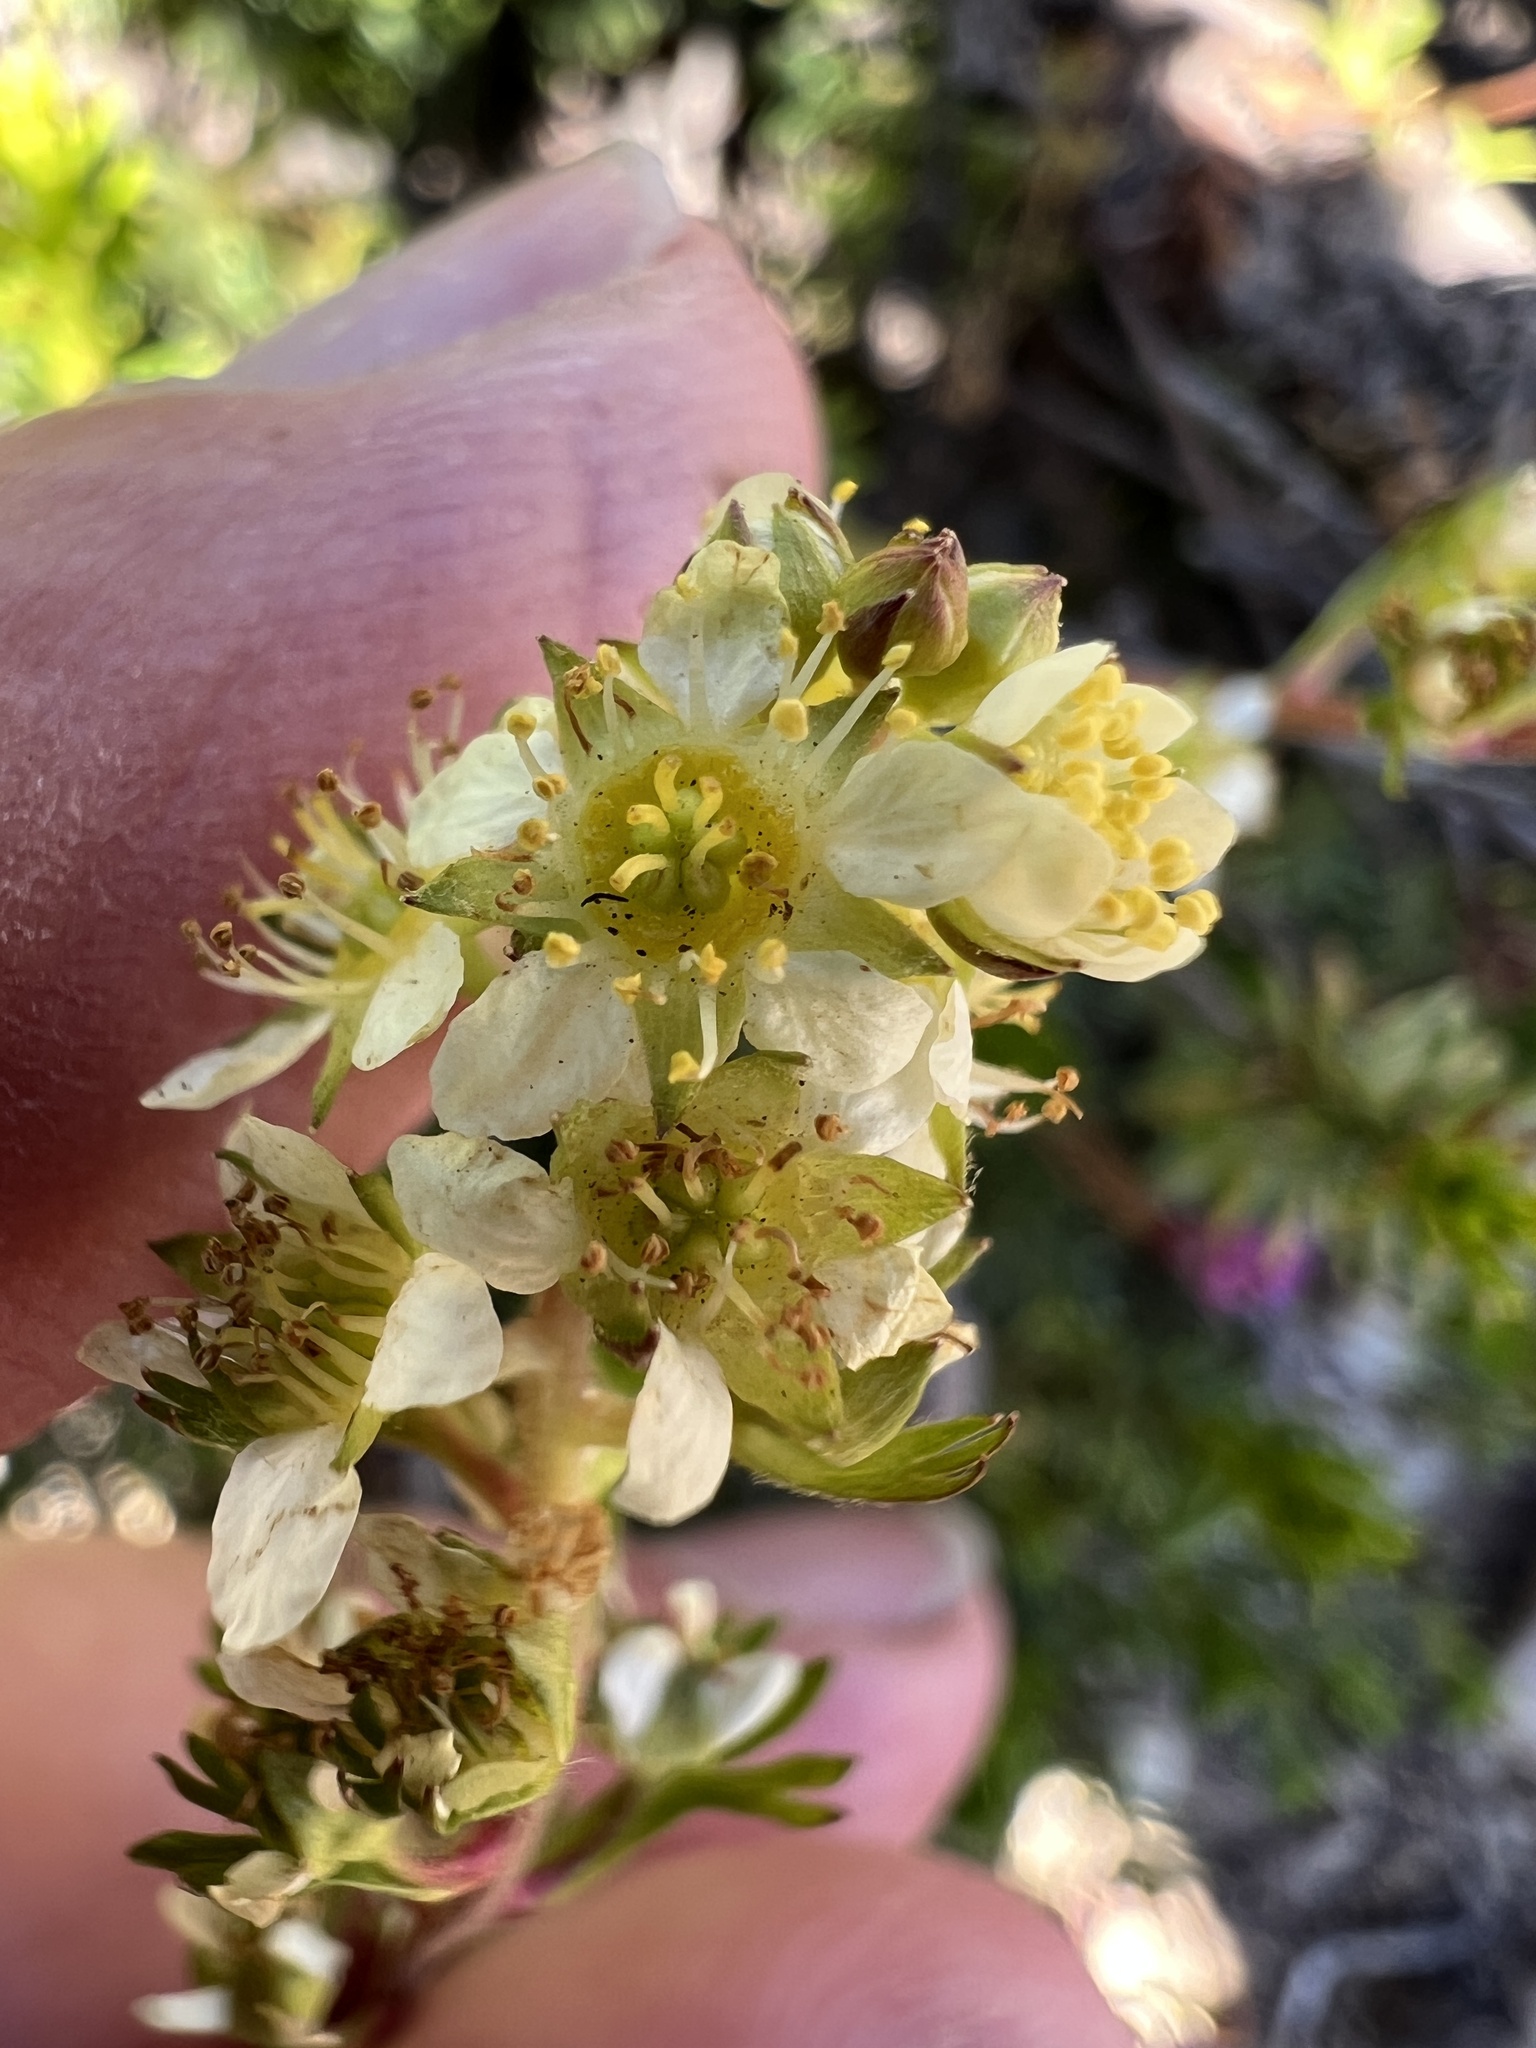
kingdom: Plantae
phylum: Tracheophyta
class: Magnoliopsida
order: Rosales
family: Rosaceae
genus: Luetkea
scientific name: Luetkea pectinata
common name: Partridgefoot
